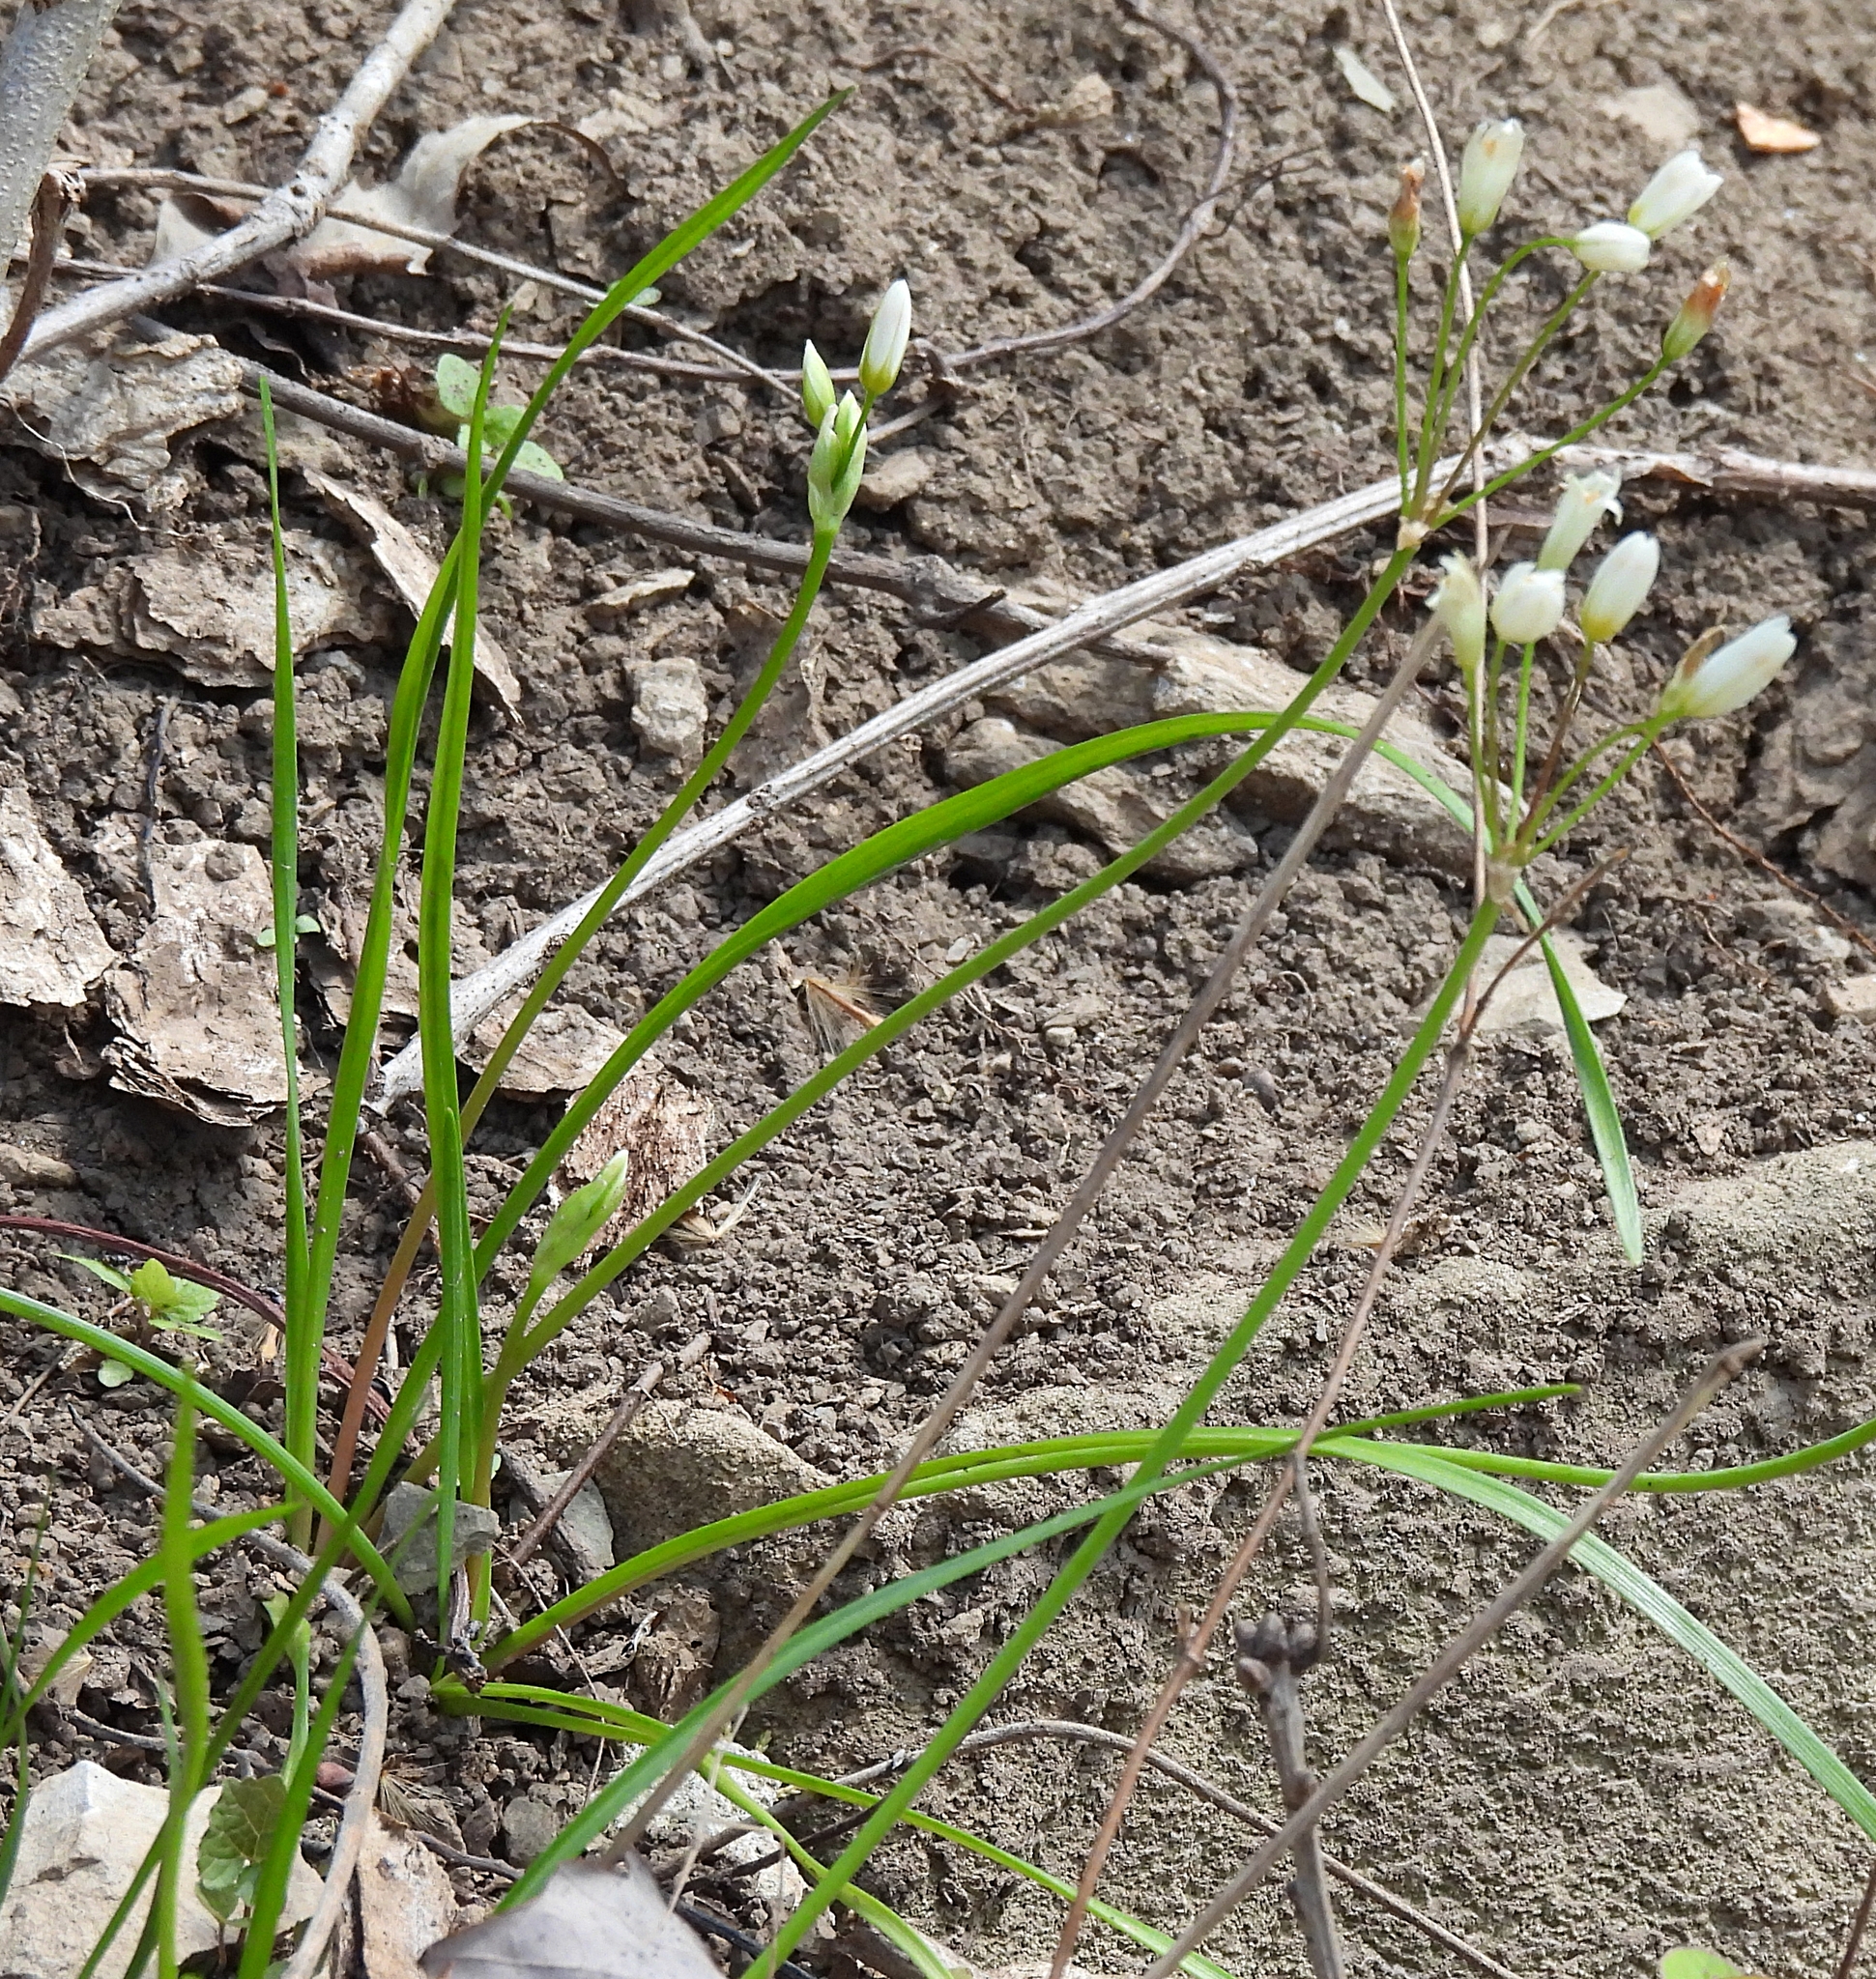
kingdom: Plantae
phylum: Tracheophyta
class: Liliopsida
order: Asparagales
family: Amaryllidaceae
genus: Nothoscordum
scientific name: Nothoscordum bivalve
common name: Crow-poison
